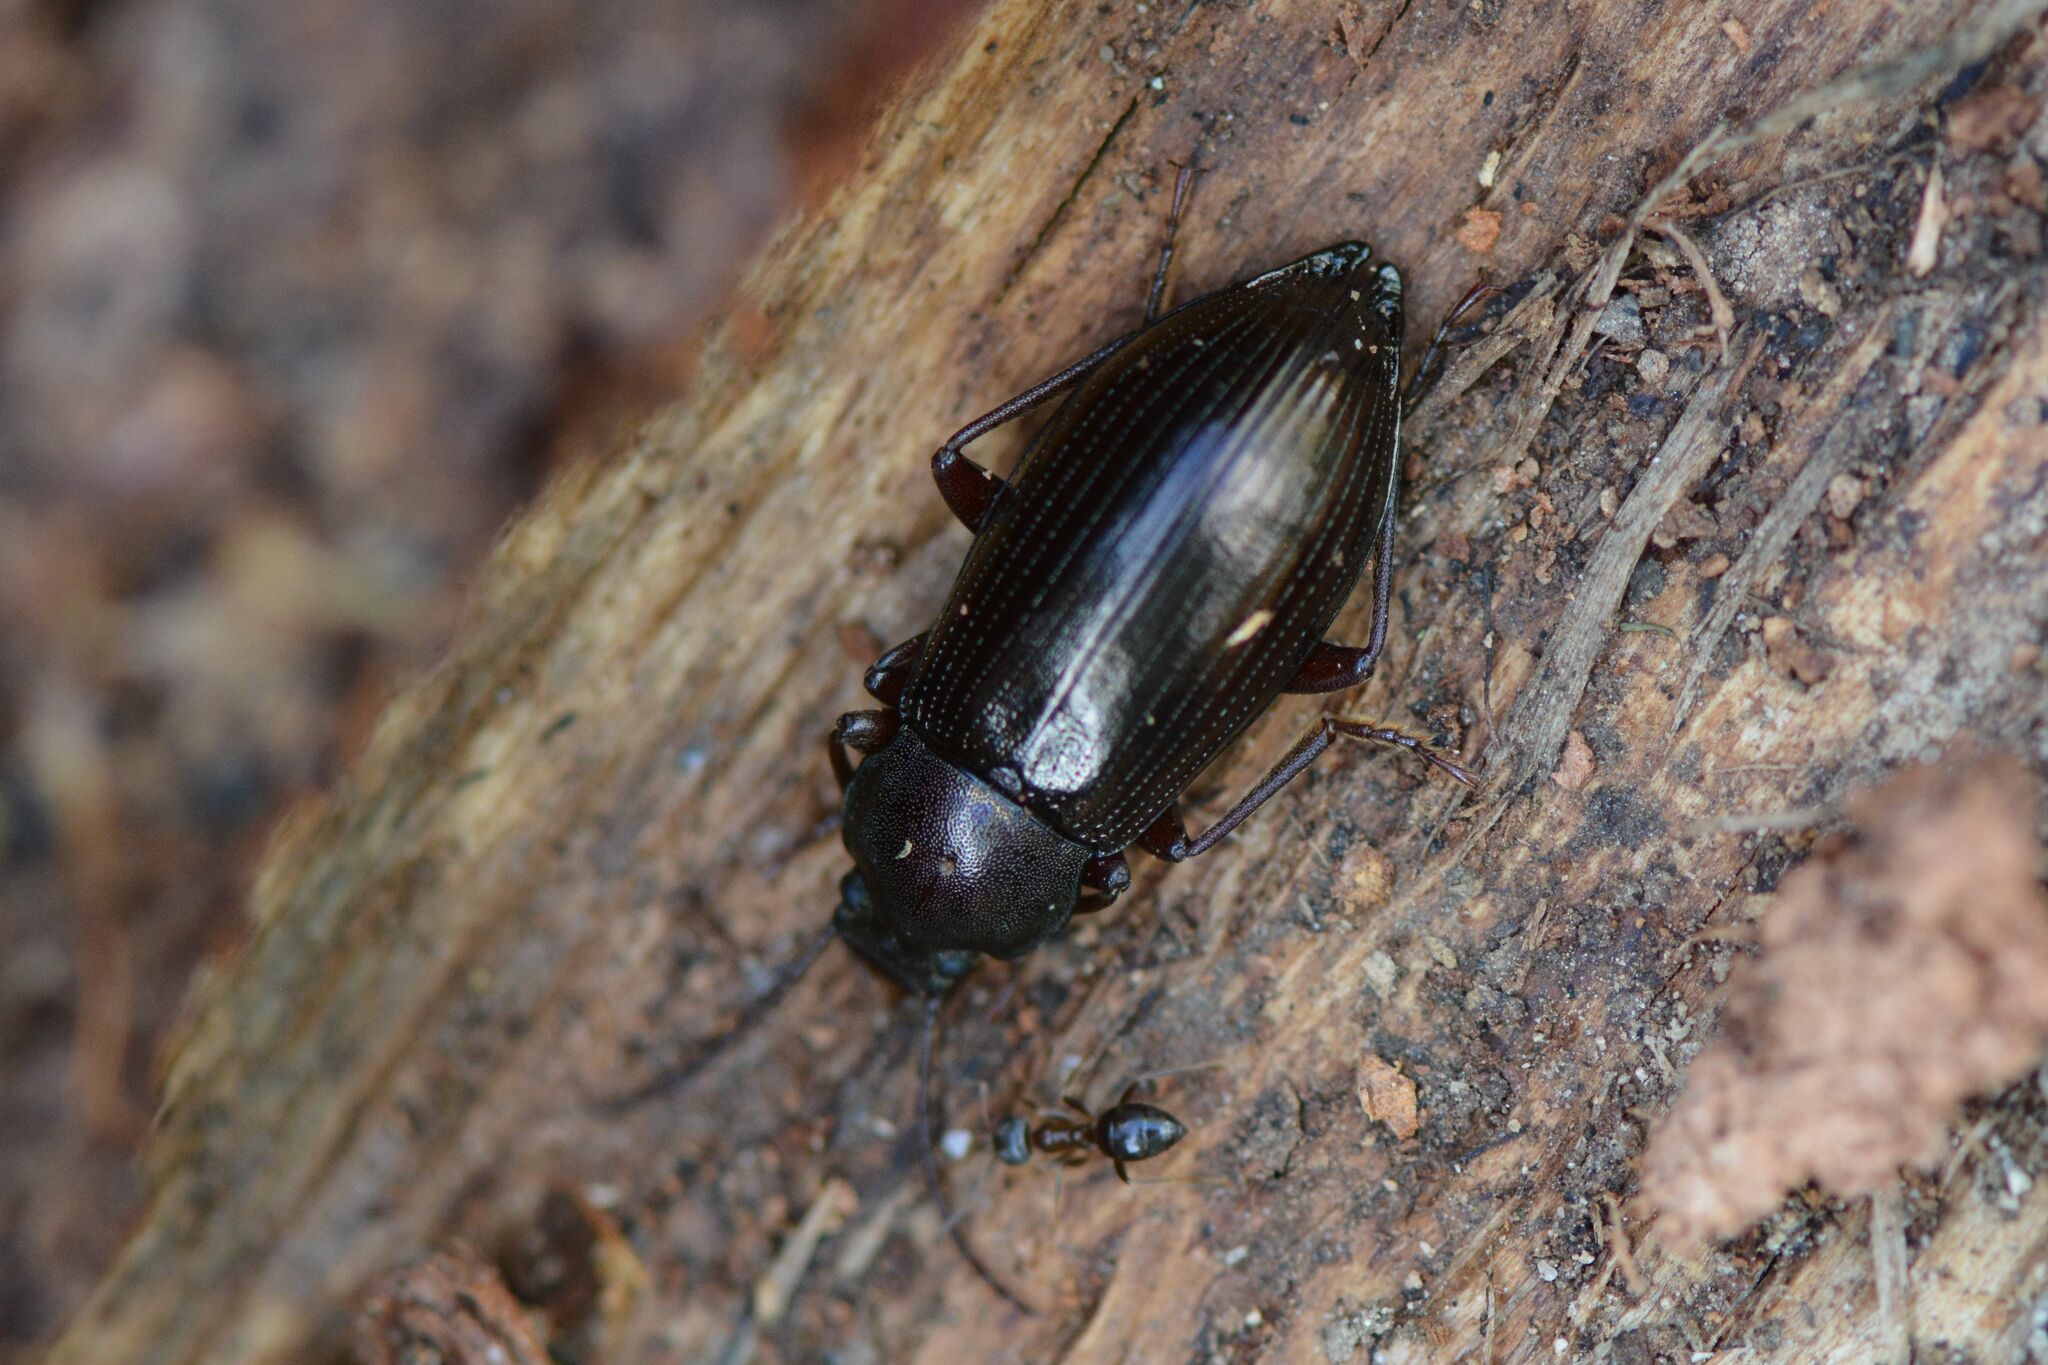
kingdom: Animalia
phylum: Arthropoda
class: Insecta
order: Coleoptera
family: Tenebrionidae
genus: Stenomax
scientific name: Stenomax aeneus
